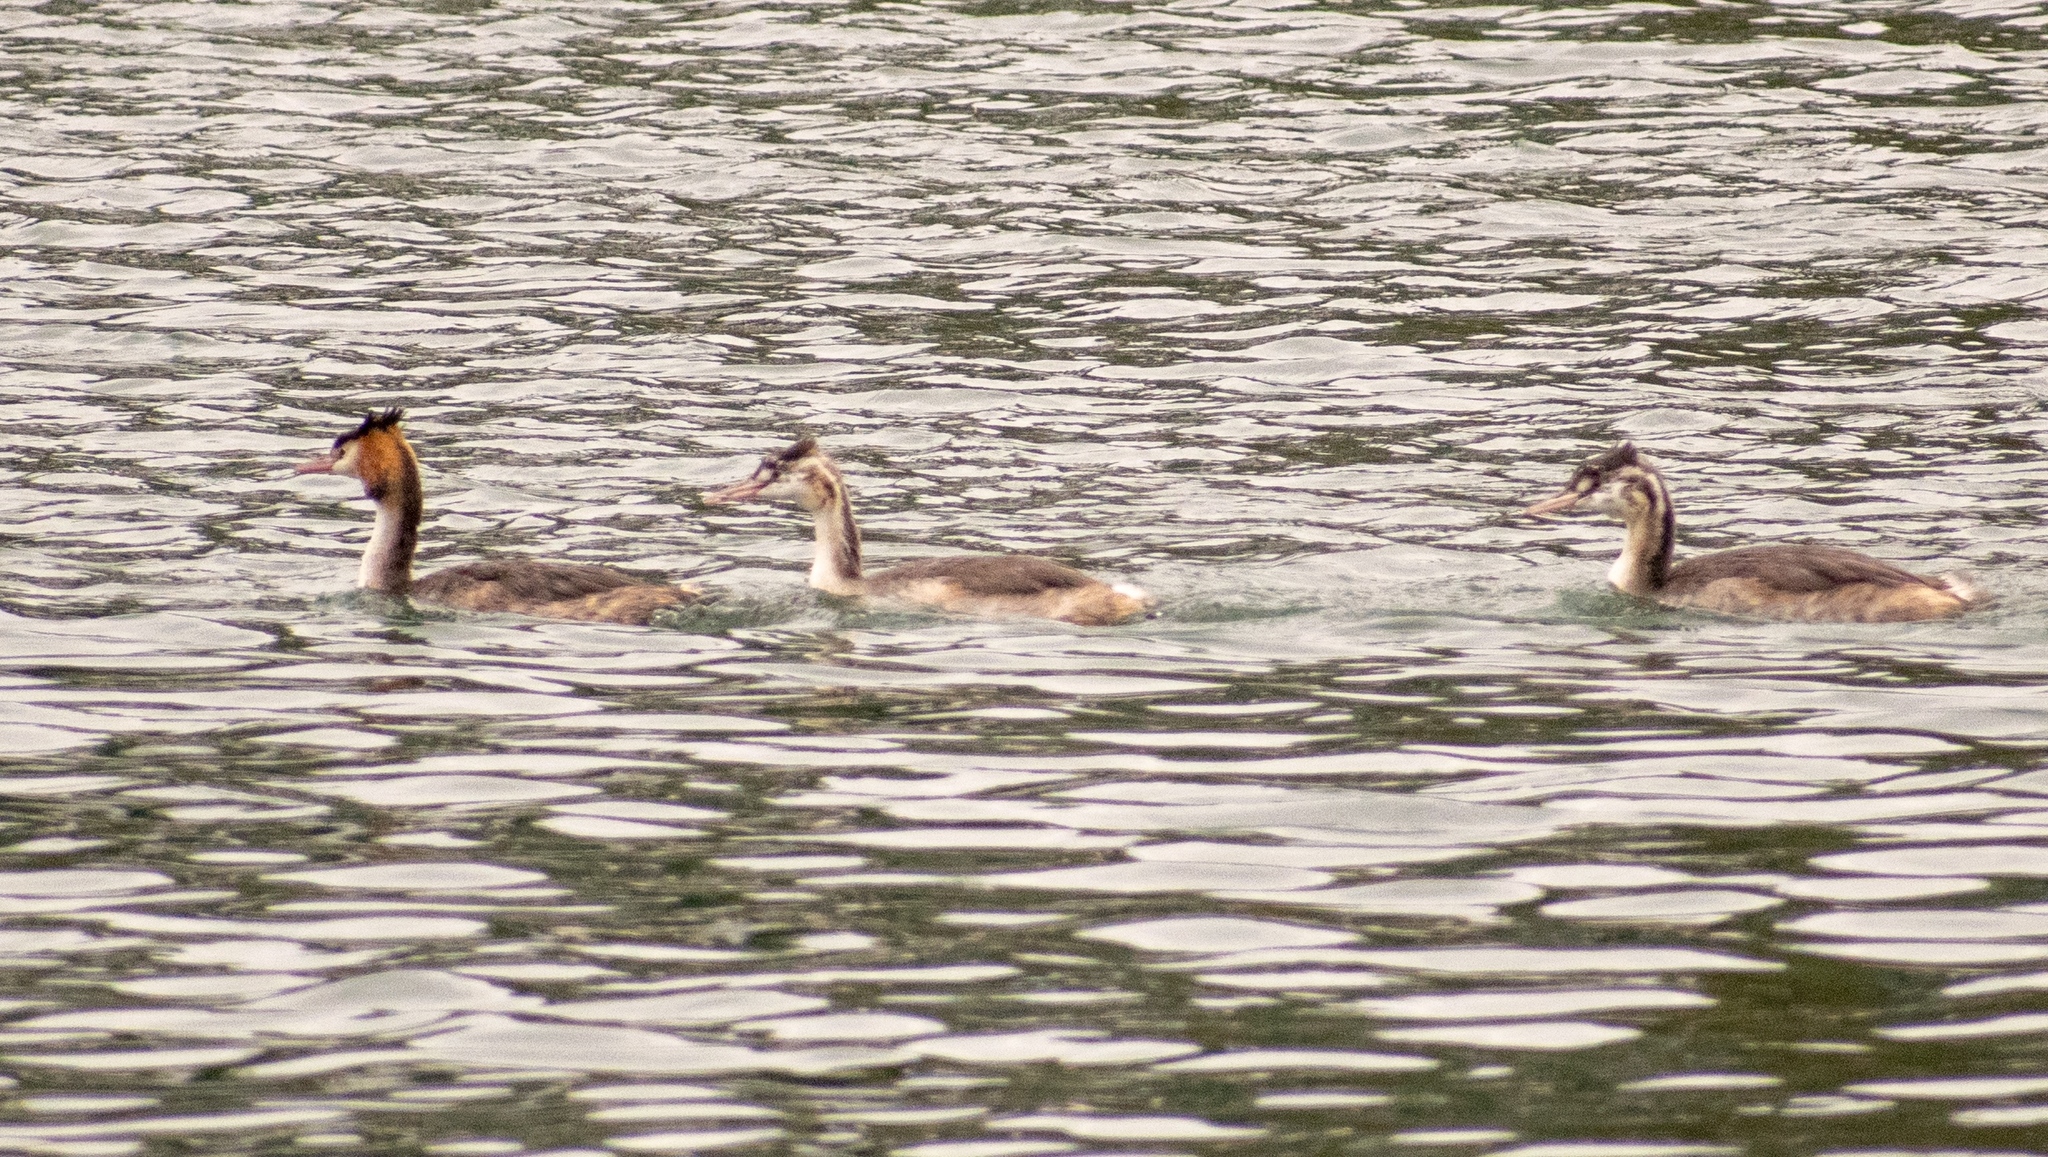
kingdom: Animalia
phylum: Chordata
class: Aves
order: Podicipediformes
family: Podicipedidae
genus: Podiceps
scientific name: Podiceps cristatus
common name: Great crested grebe
